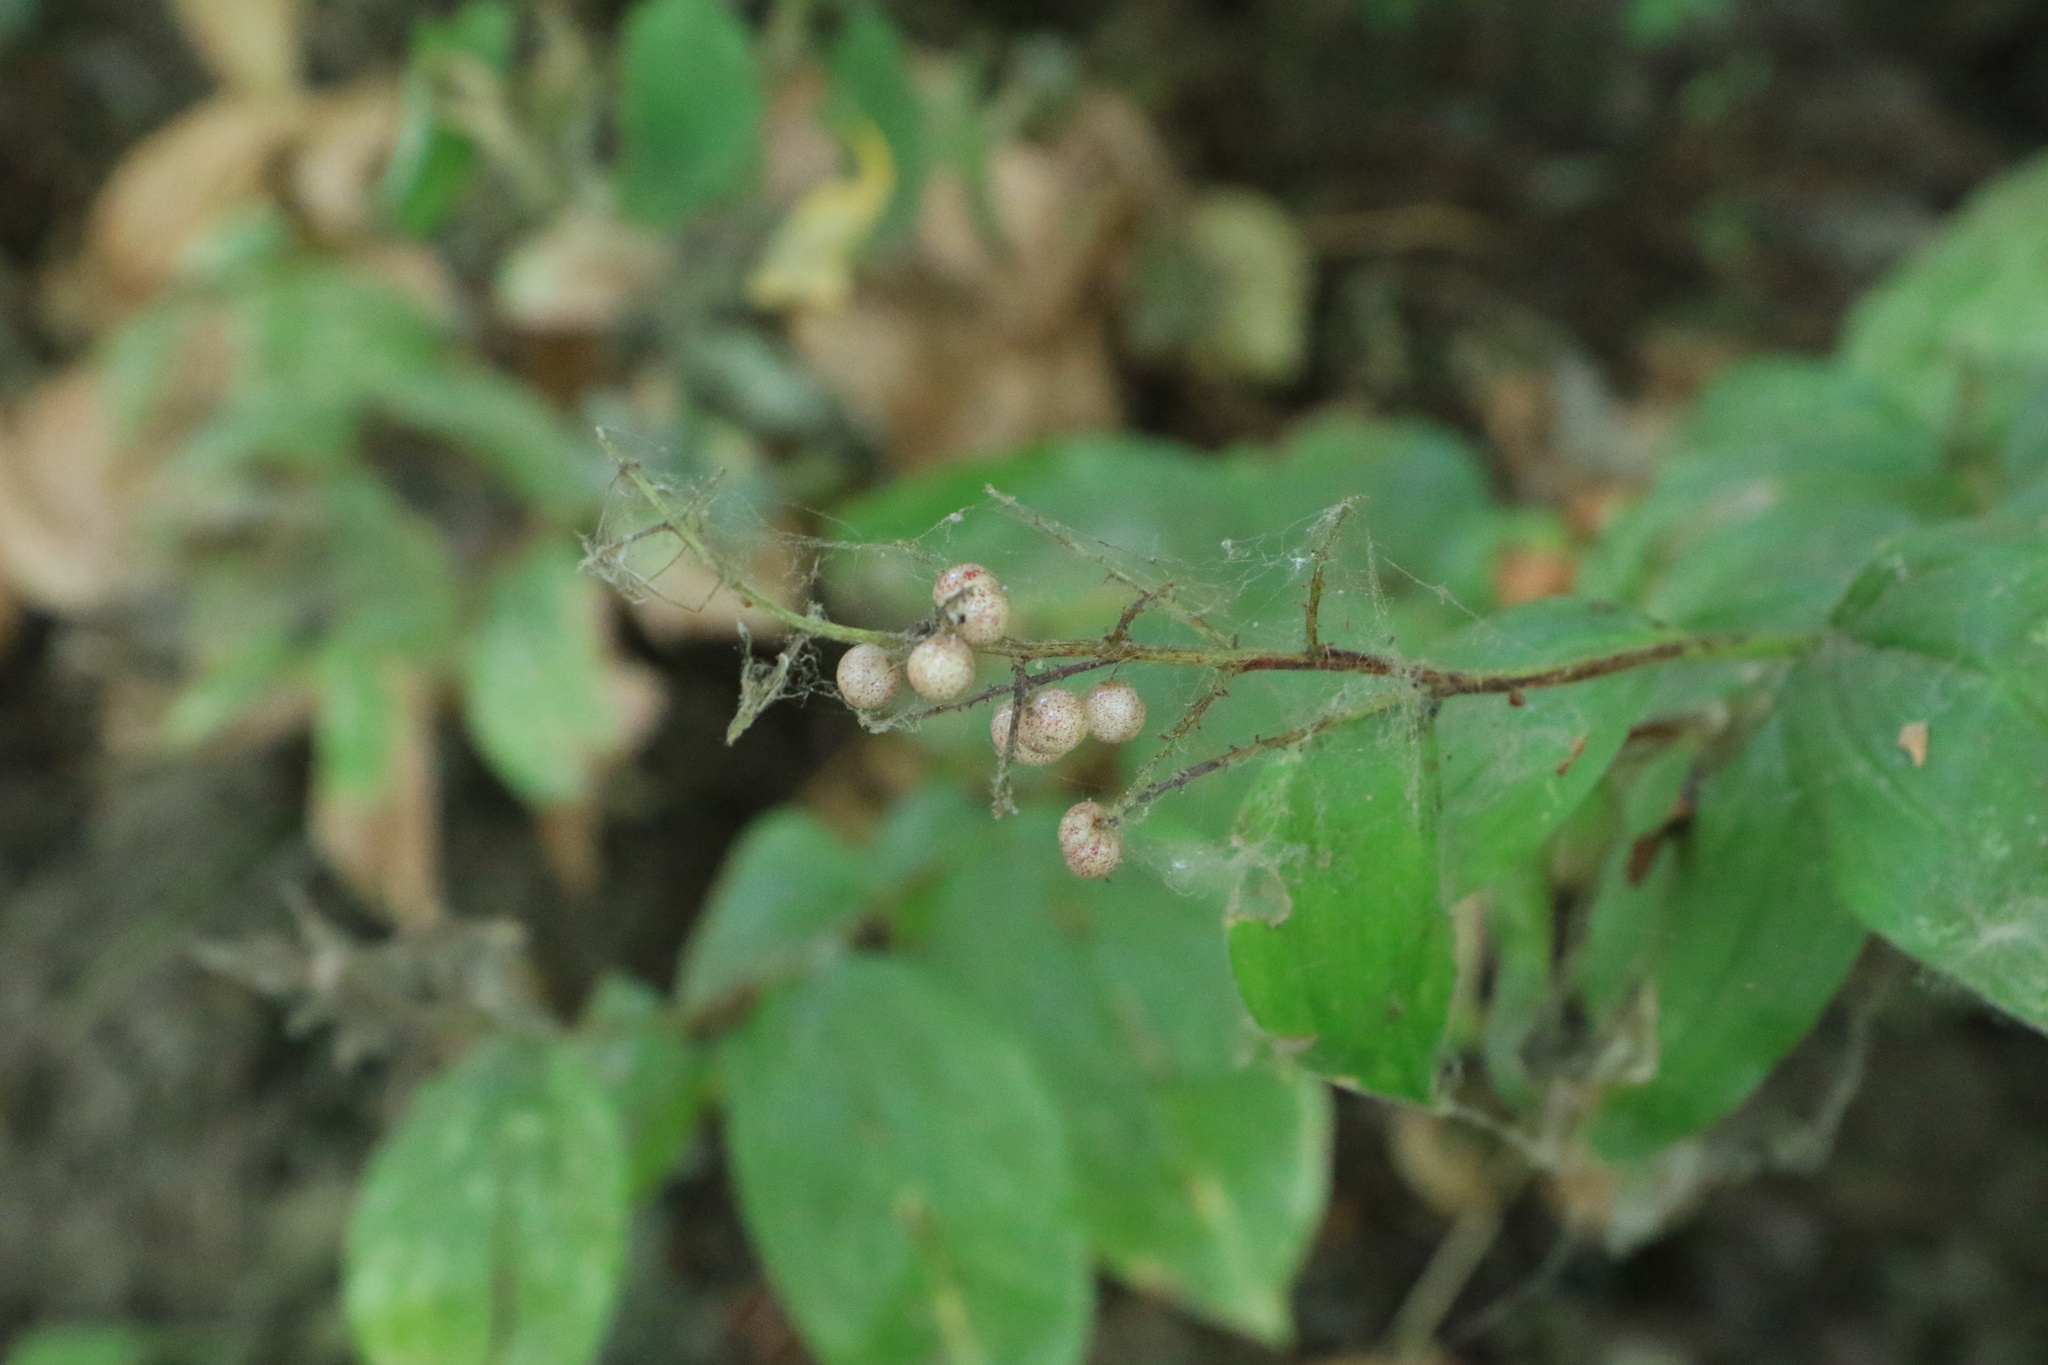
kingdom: Plantae
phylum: Tracheophyta
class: Liliopsida
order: Asparagales
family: Asparagaceae
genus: Maianthemum
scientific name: Maianthemum racemosum
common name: False spikenard
